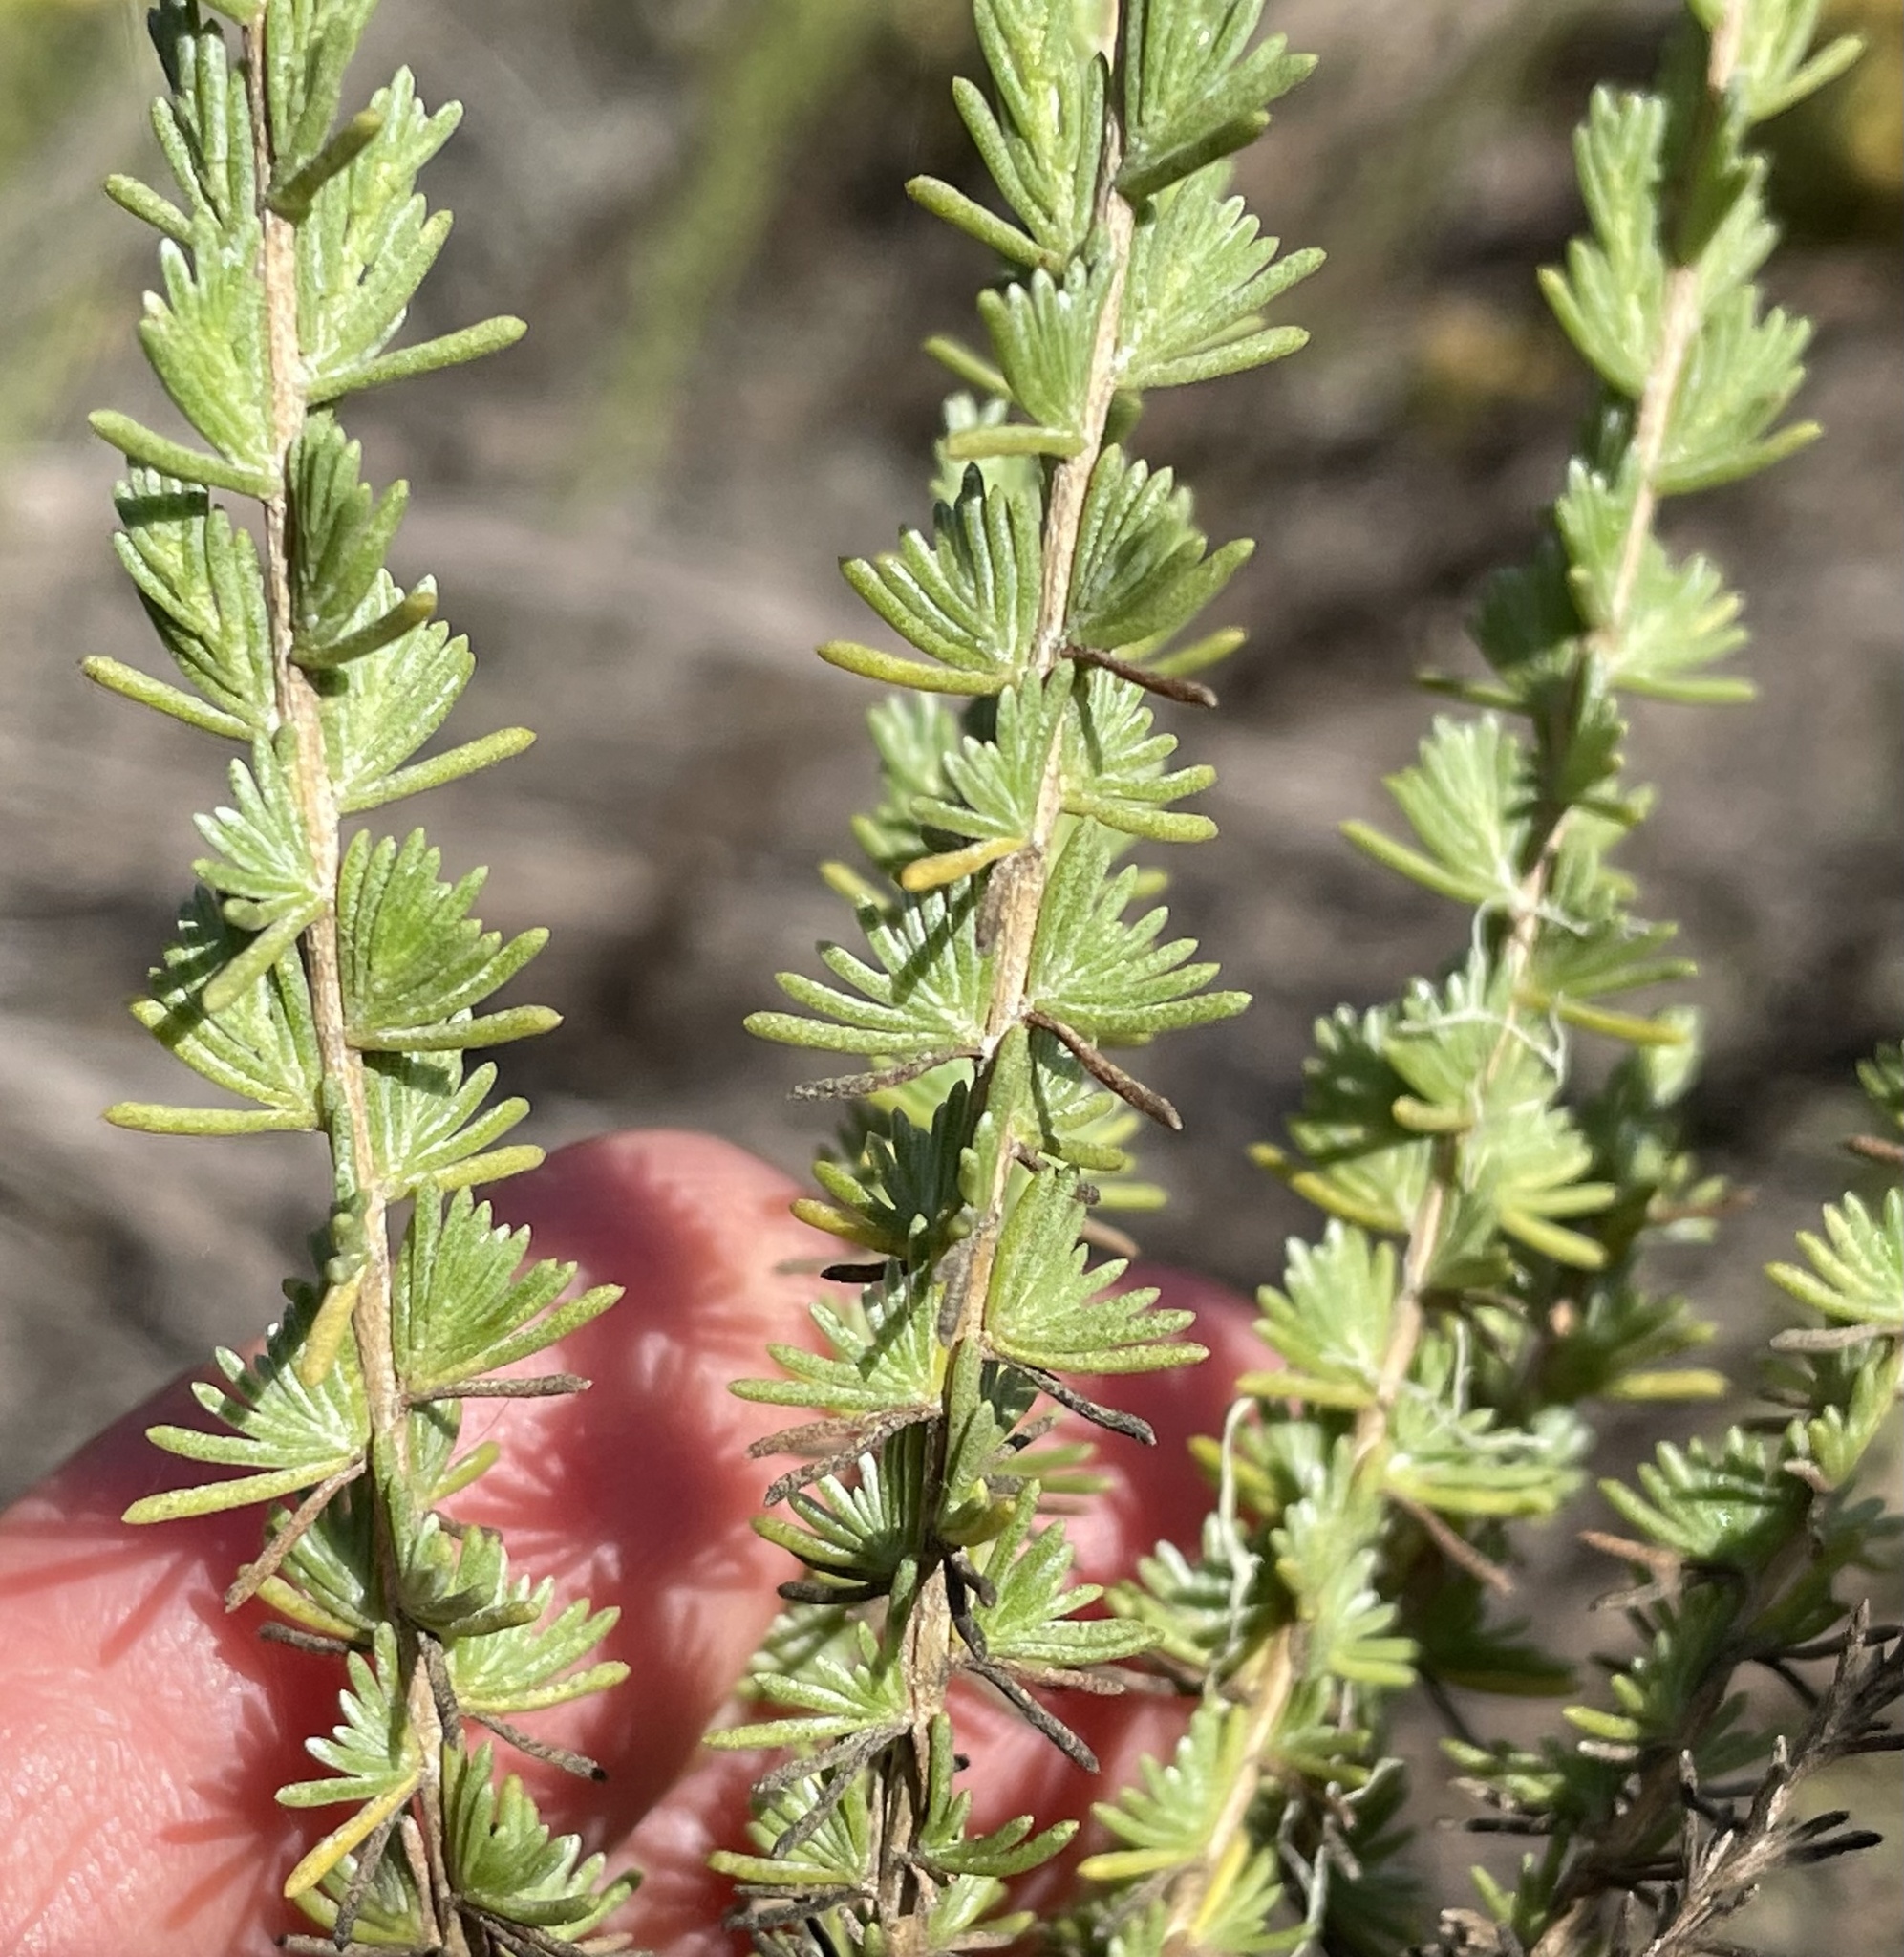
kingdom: Plantae
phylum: Tracheophyta
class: Magnoliopsida
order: Asterales
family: Asteraceae
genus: Ericameria
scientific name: Ericameria ericoides
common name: California goldenbush
